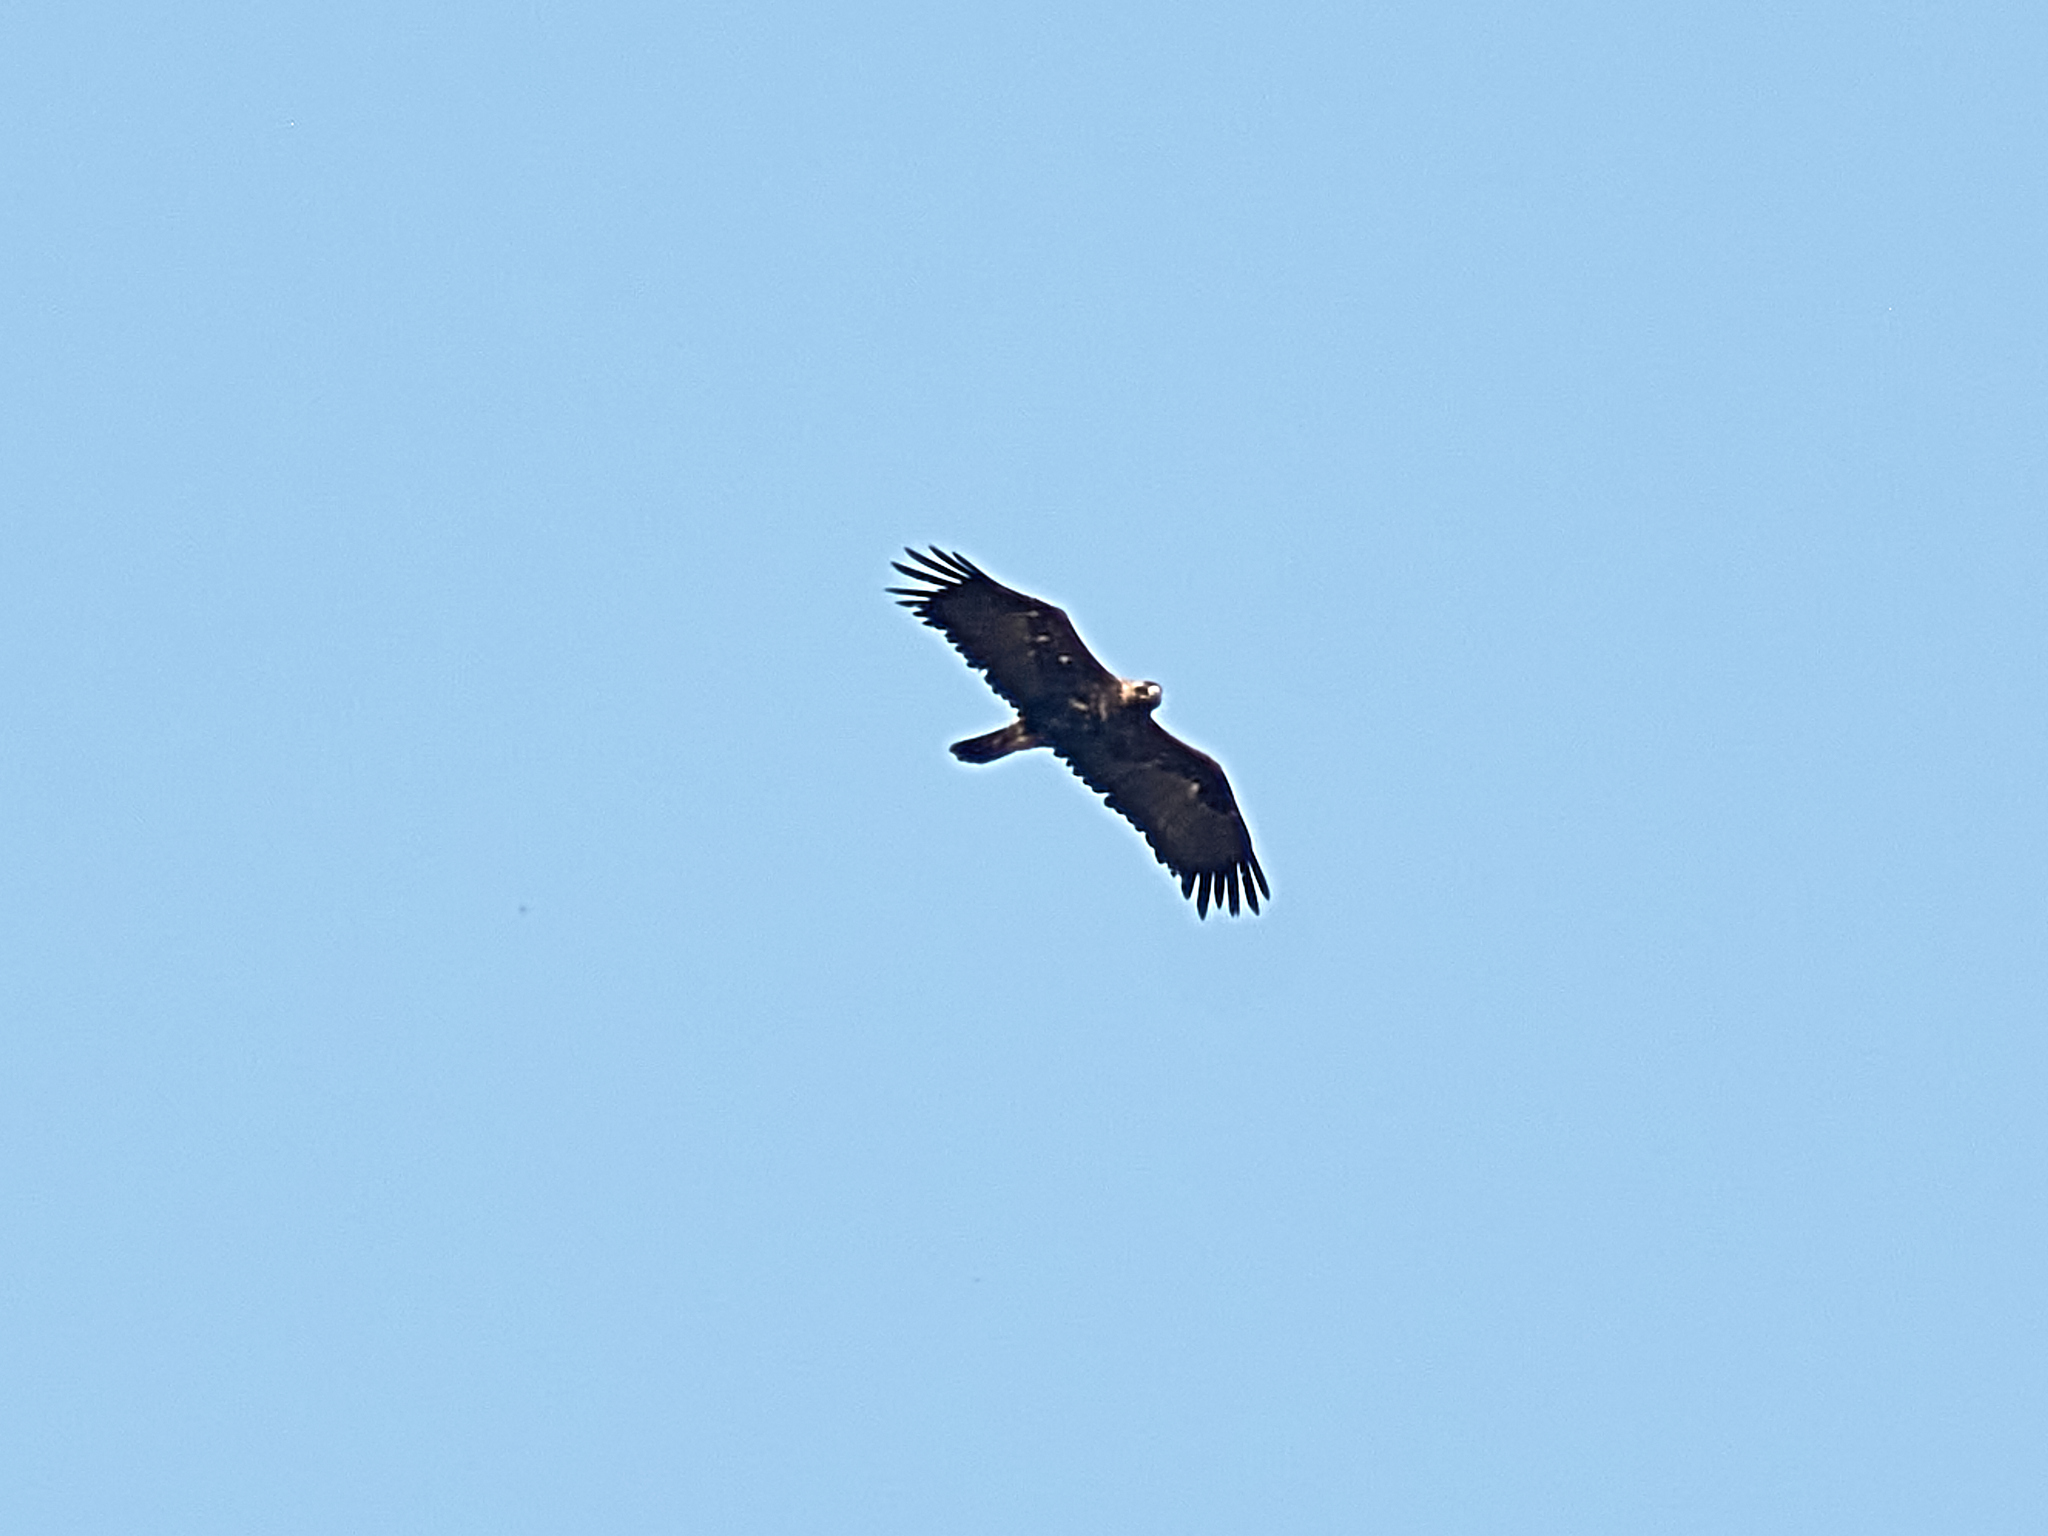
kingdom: Animalia
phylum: Chordata
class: Aves
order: Accipitriformes
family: Accipitridae
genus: Aquila
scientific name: Aquila heliaca
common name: Eastern imperial eagle
